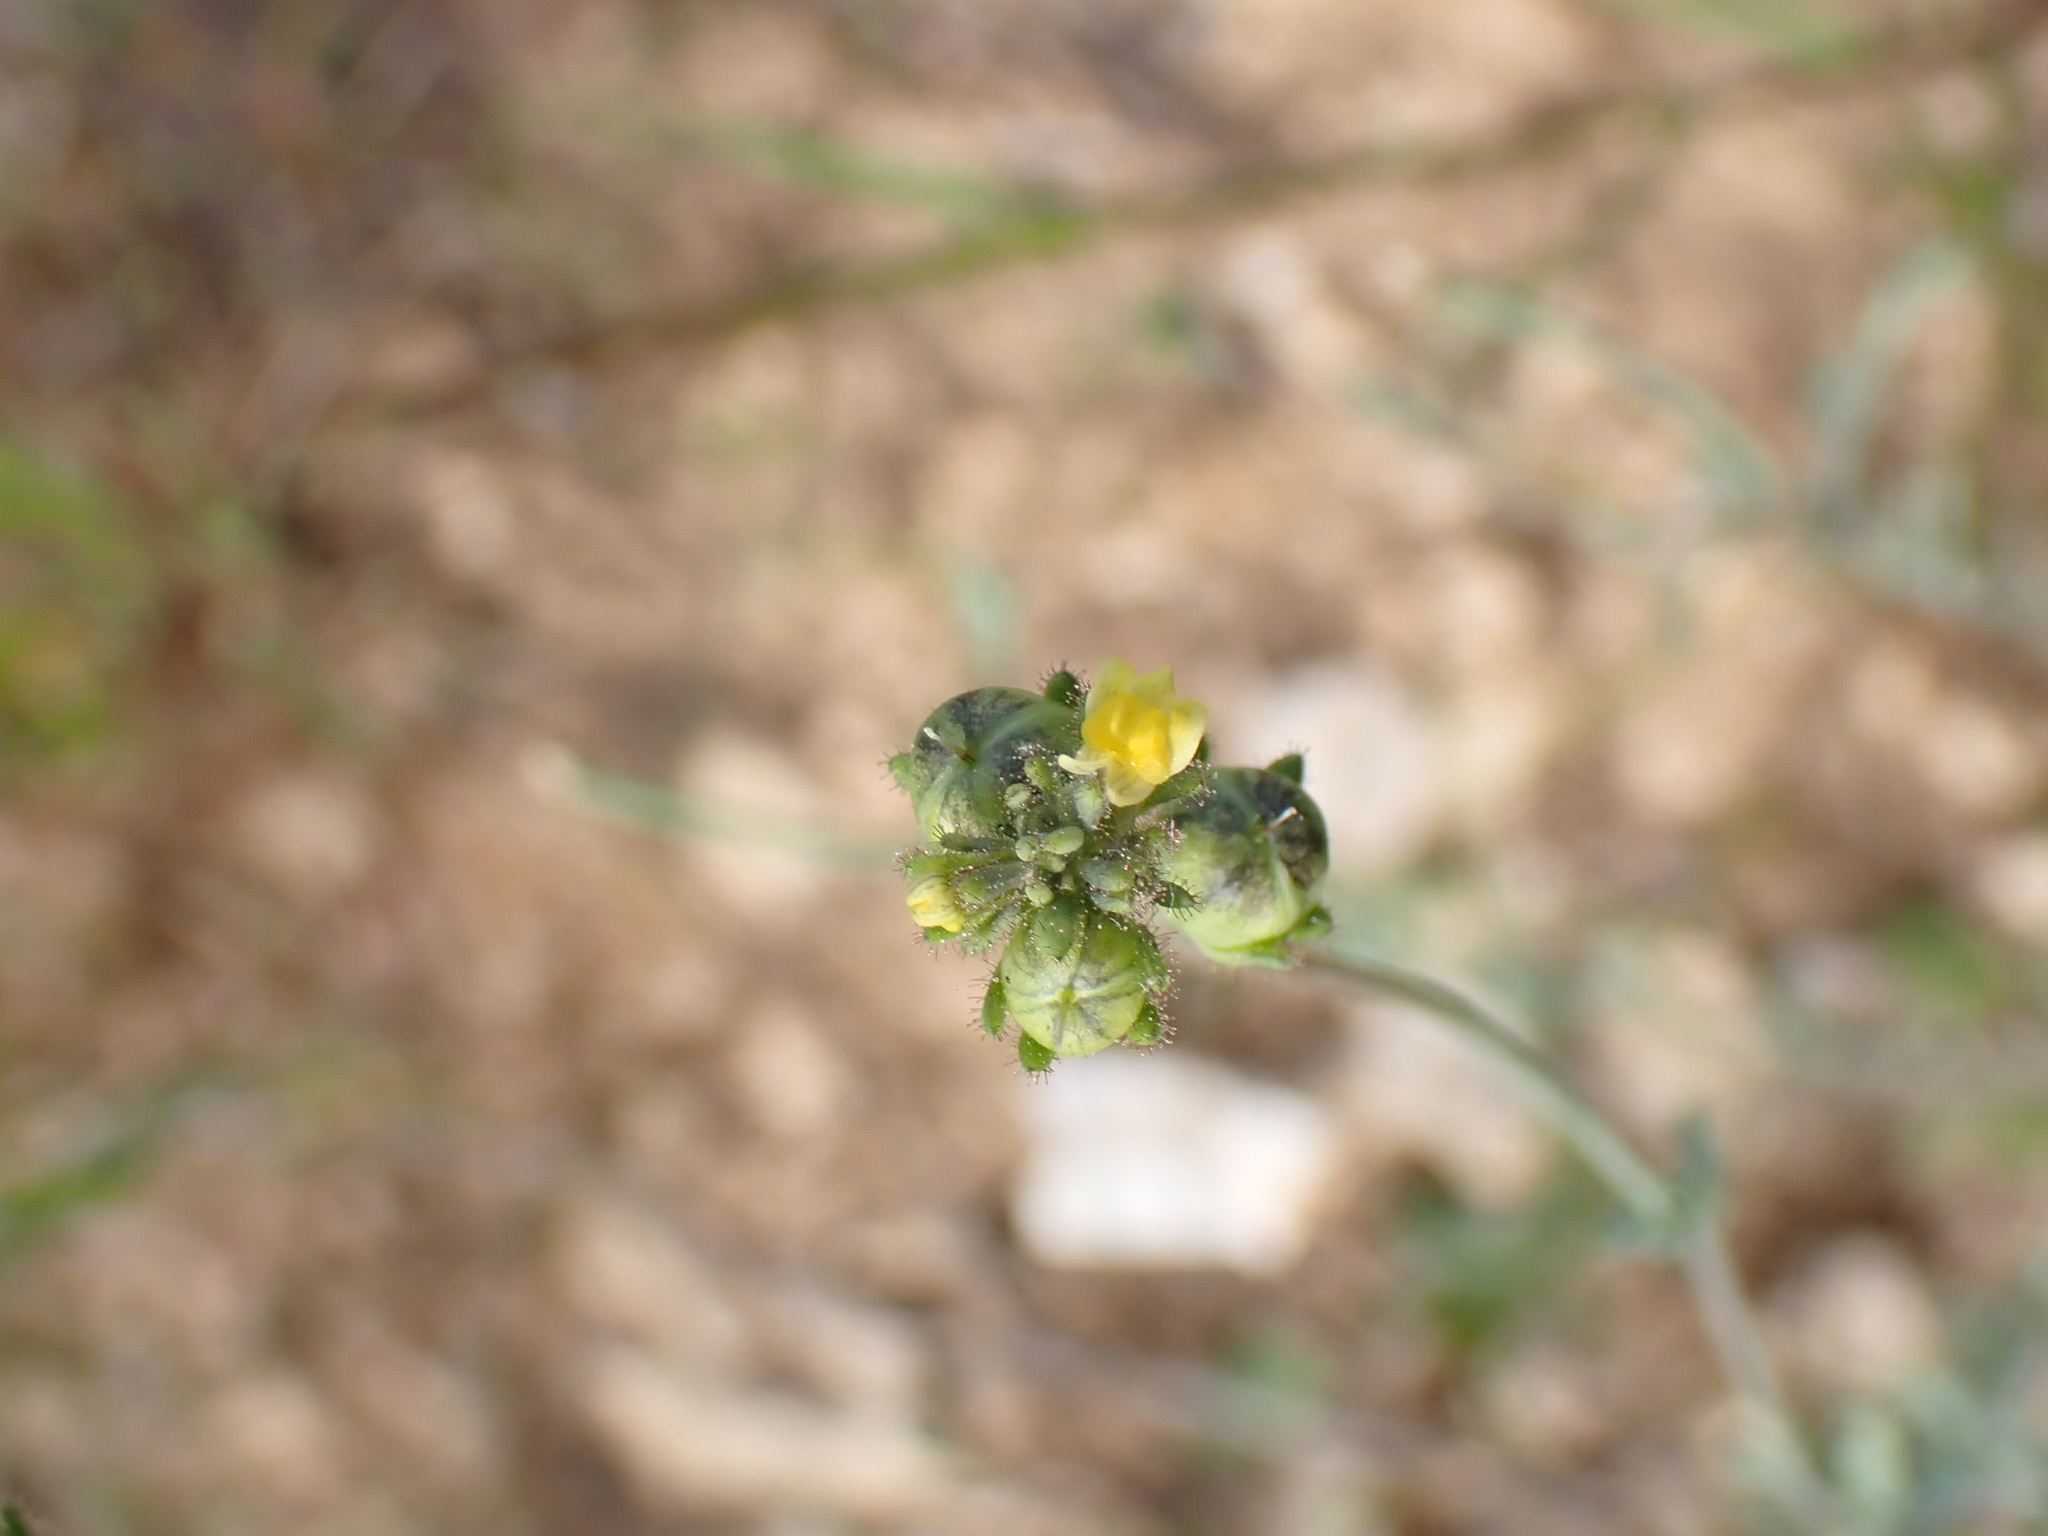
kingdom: Plantae
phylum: Tracheophyta
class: Magnoliopsida
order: Lamiales
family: Plantaginaceae
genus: Linaria
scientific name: Linaria simplex
